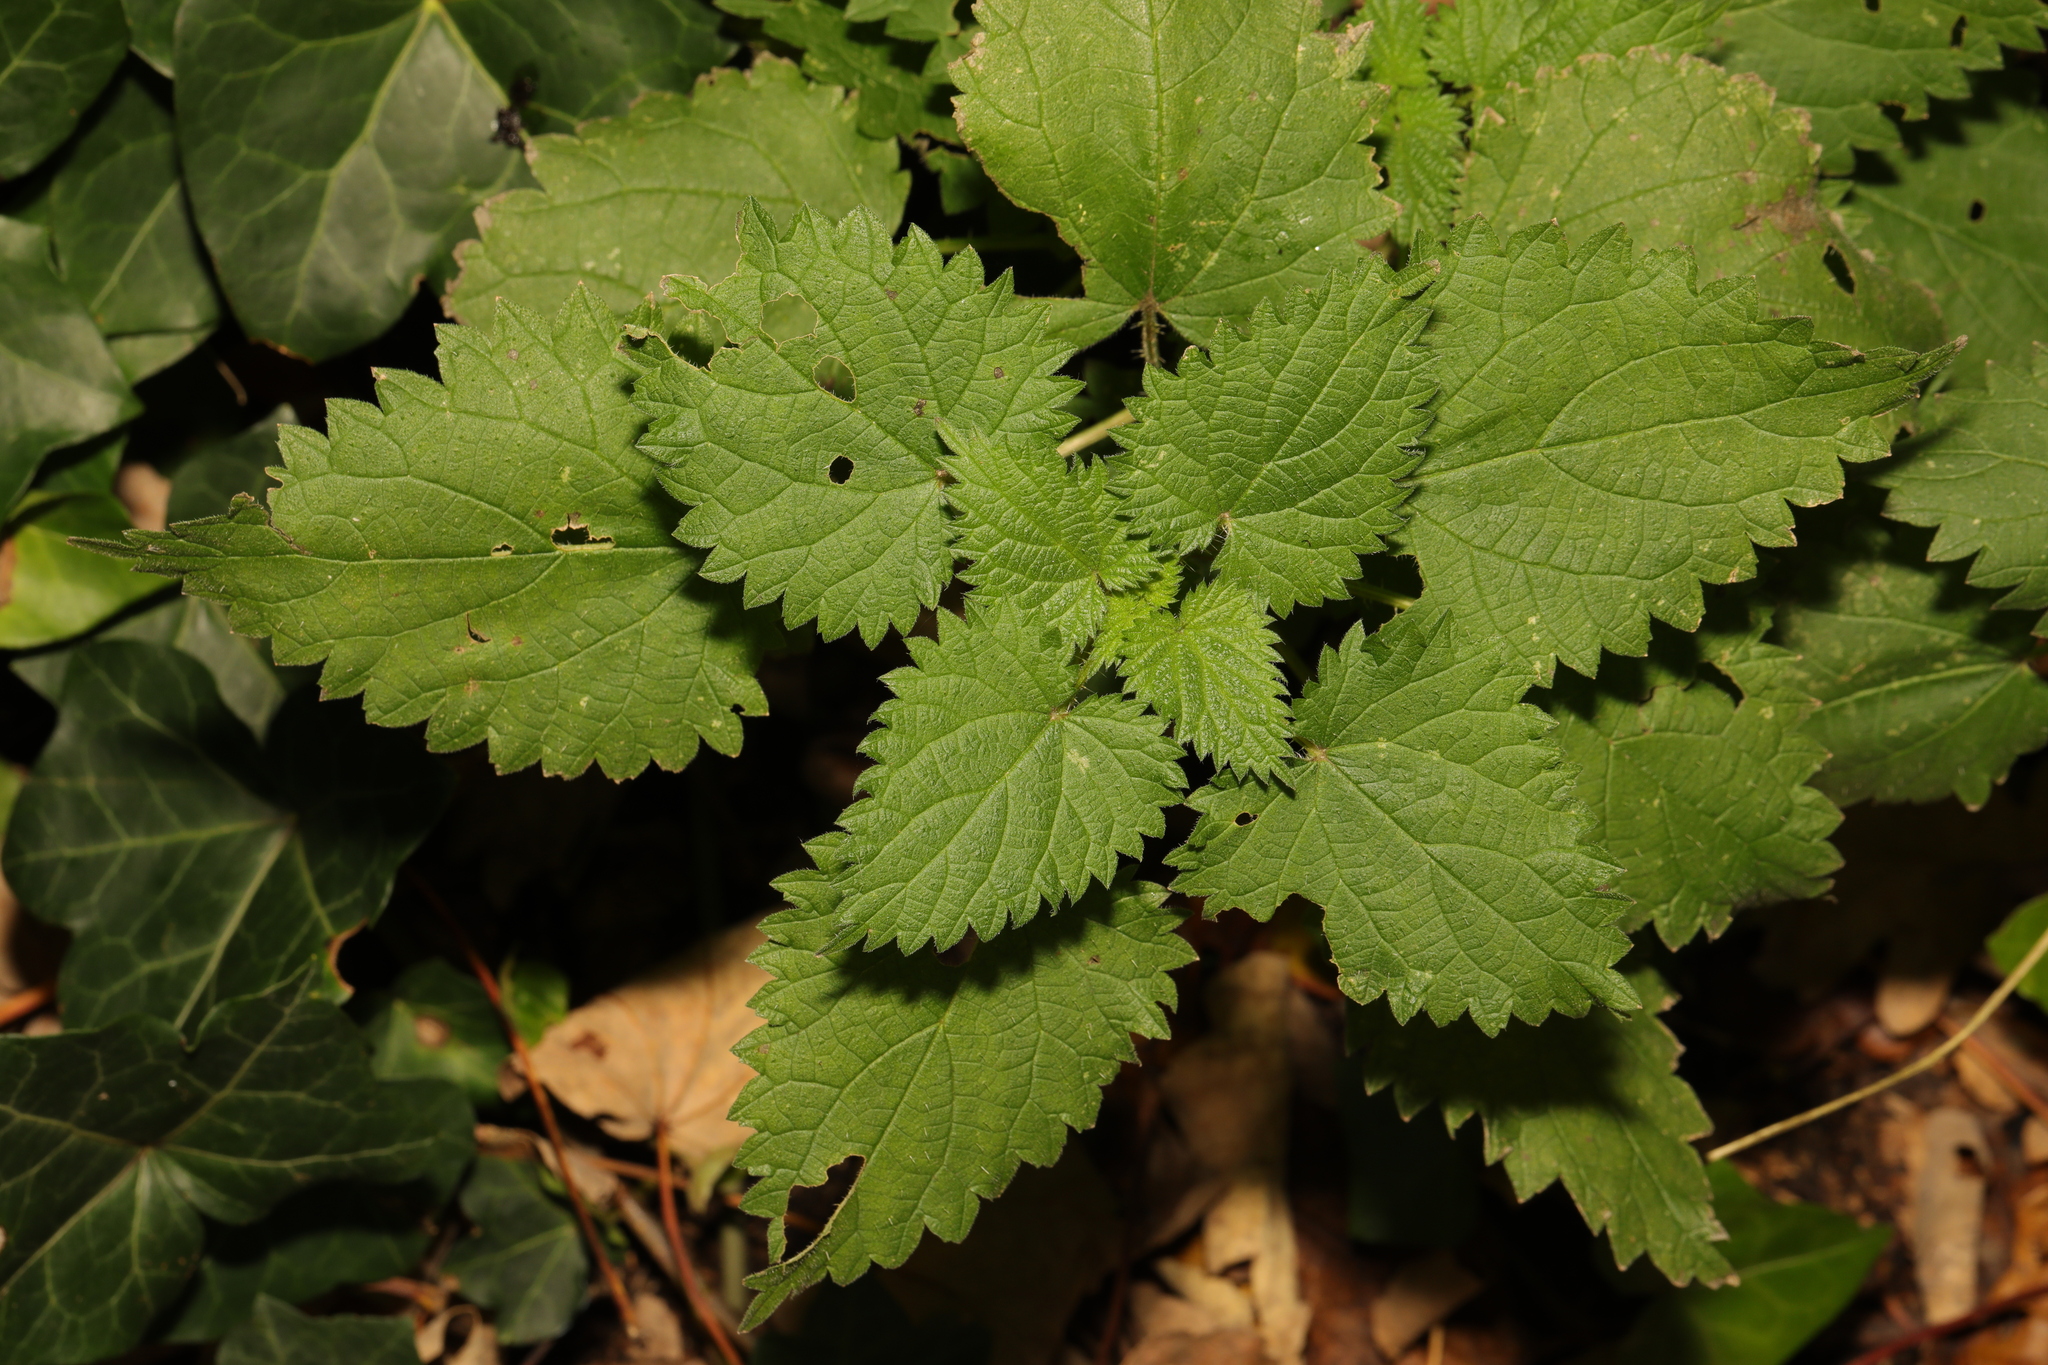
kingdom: Plantae
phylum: Tracheophyta
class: Magnoliopsida
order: Rosales
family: Urticaceae
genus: Urtica
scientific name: Urtica dioica
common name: Common nettle
